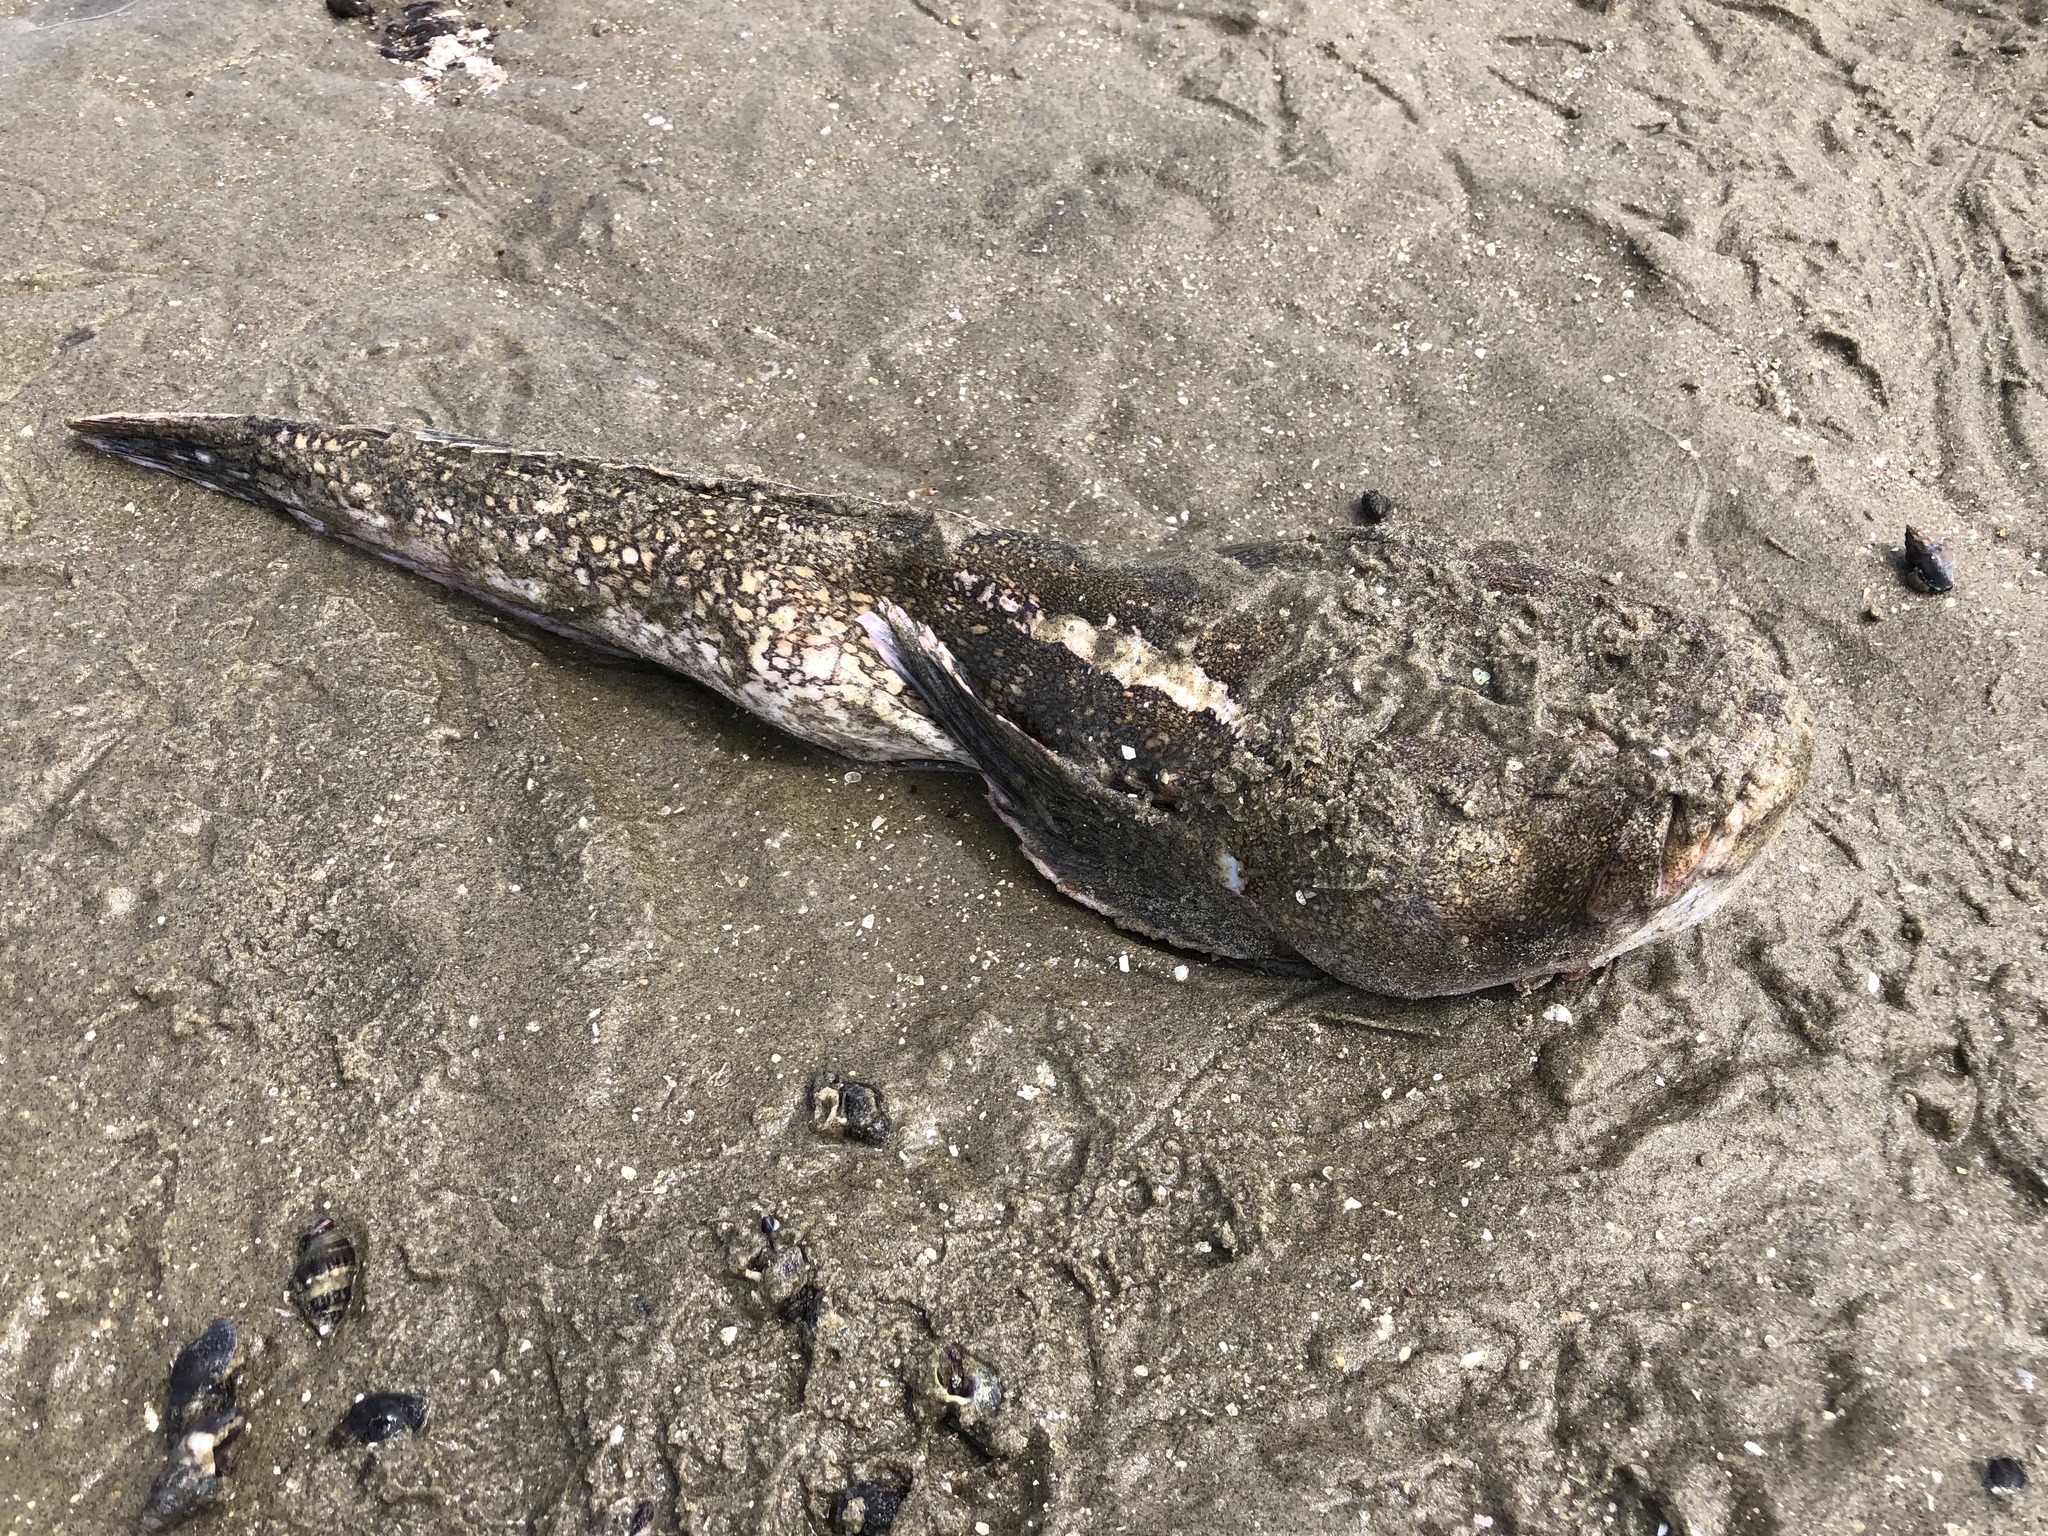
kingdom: Animalia
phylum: Chordata
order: Perciformes
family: Uranoscopidae
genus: Genyagnus
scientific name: Genyagnus monopterygius
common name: Spotted stargazer
